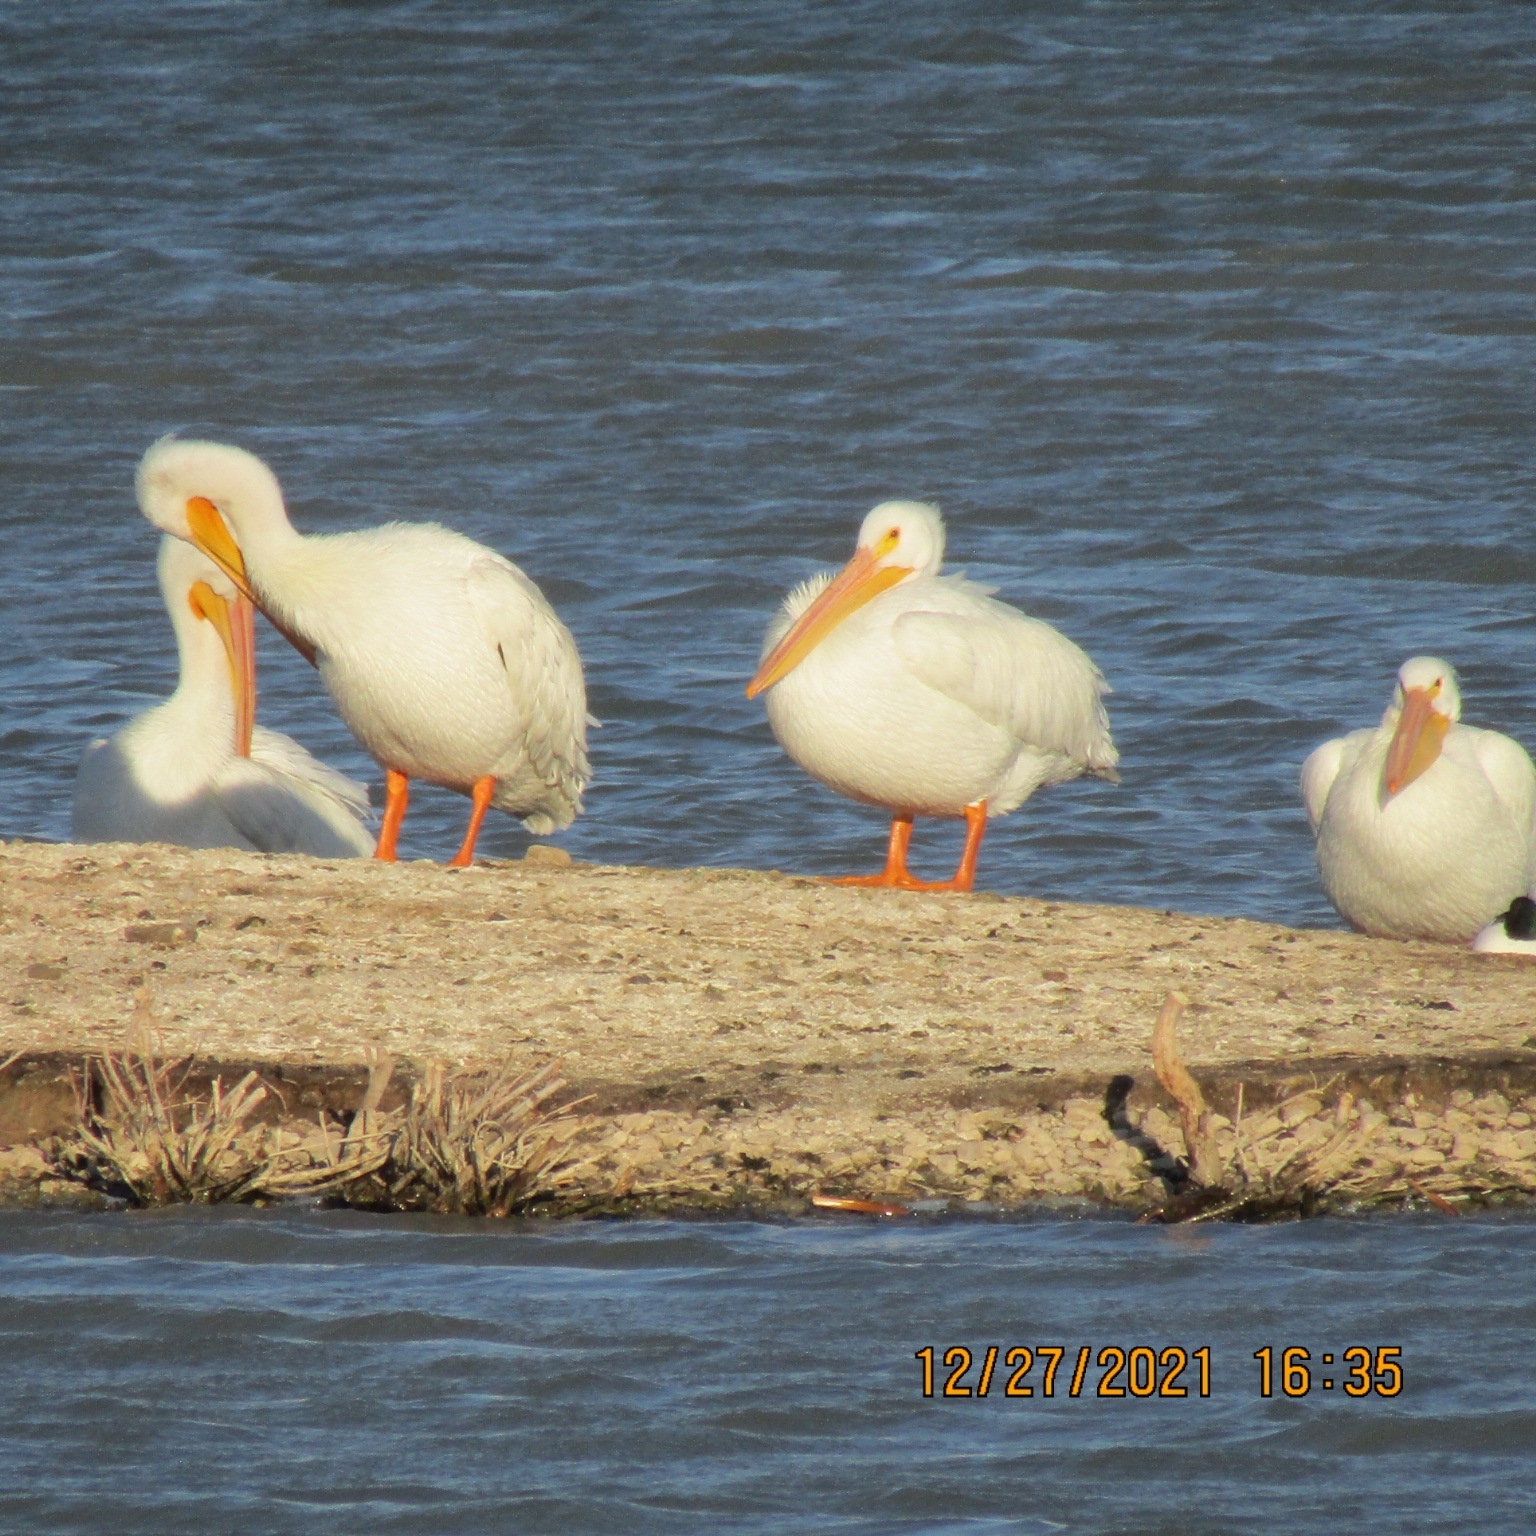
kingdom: Animalia
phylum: Chordata
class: Aves
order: Pelecaniformes
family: Pelecanidae
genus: Pelecanus
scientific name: Pelecanus erythrorhynchos
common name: American white pelican
